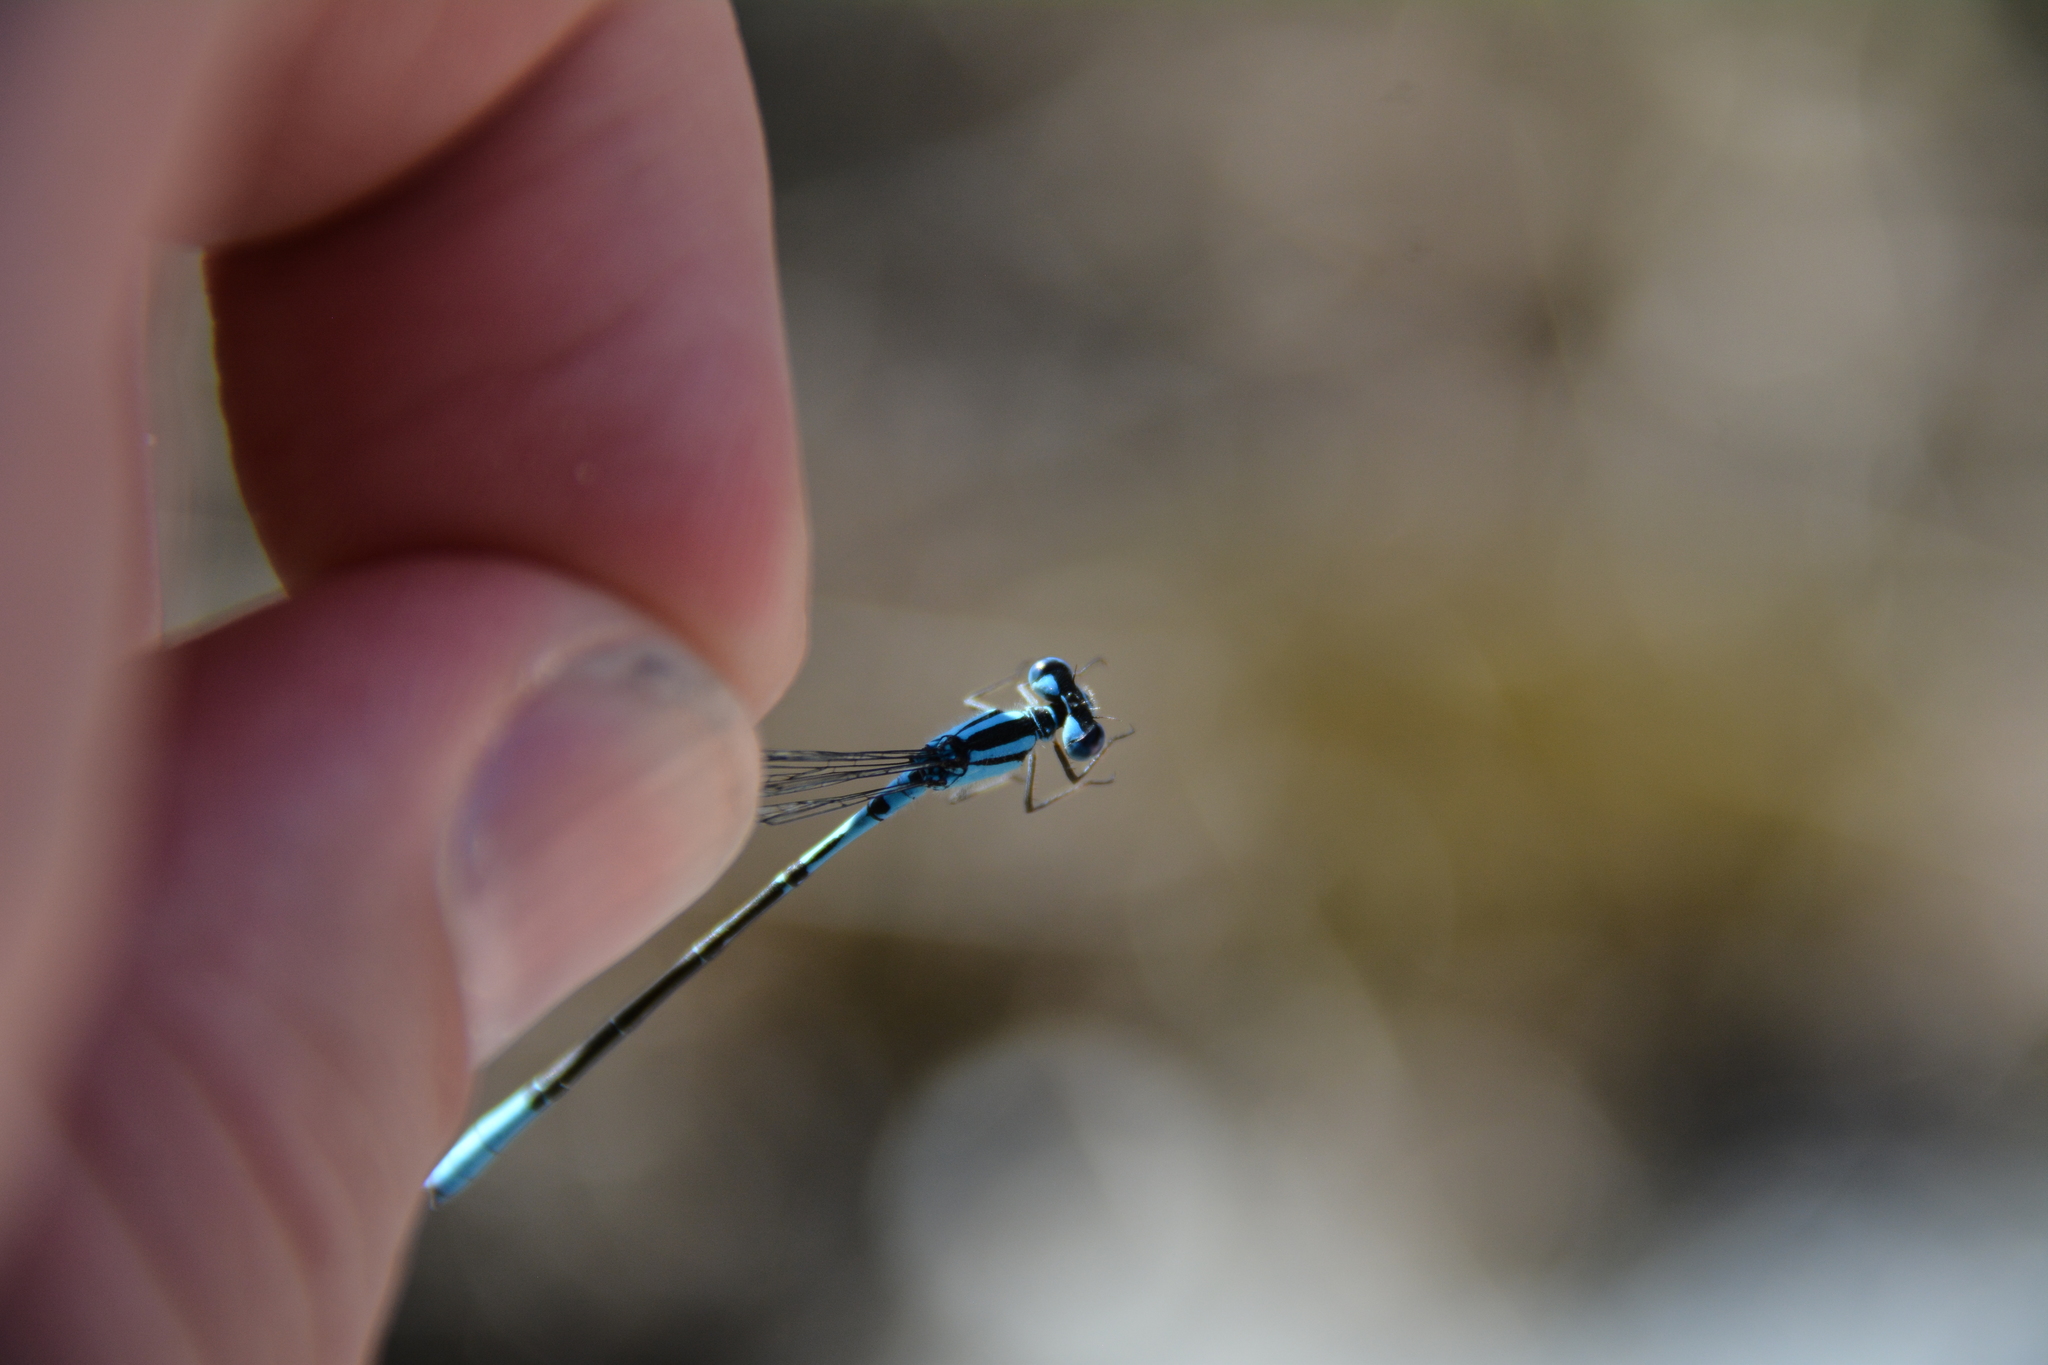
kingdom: Animalia
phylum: Arthropoda
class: Insecta
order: Odonata
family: Coenagrionidae
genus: Enallagma
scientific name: Enallagma aspersum
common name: Azure bluet
